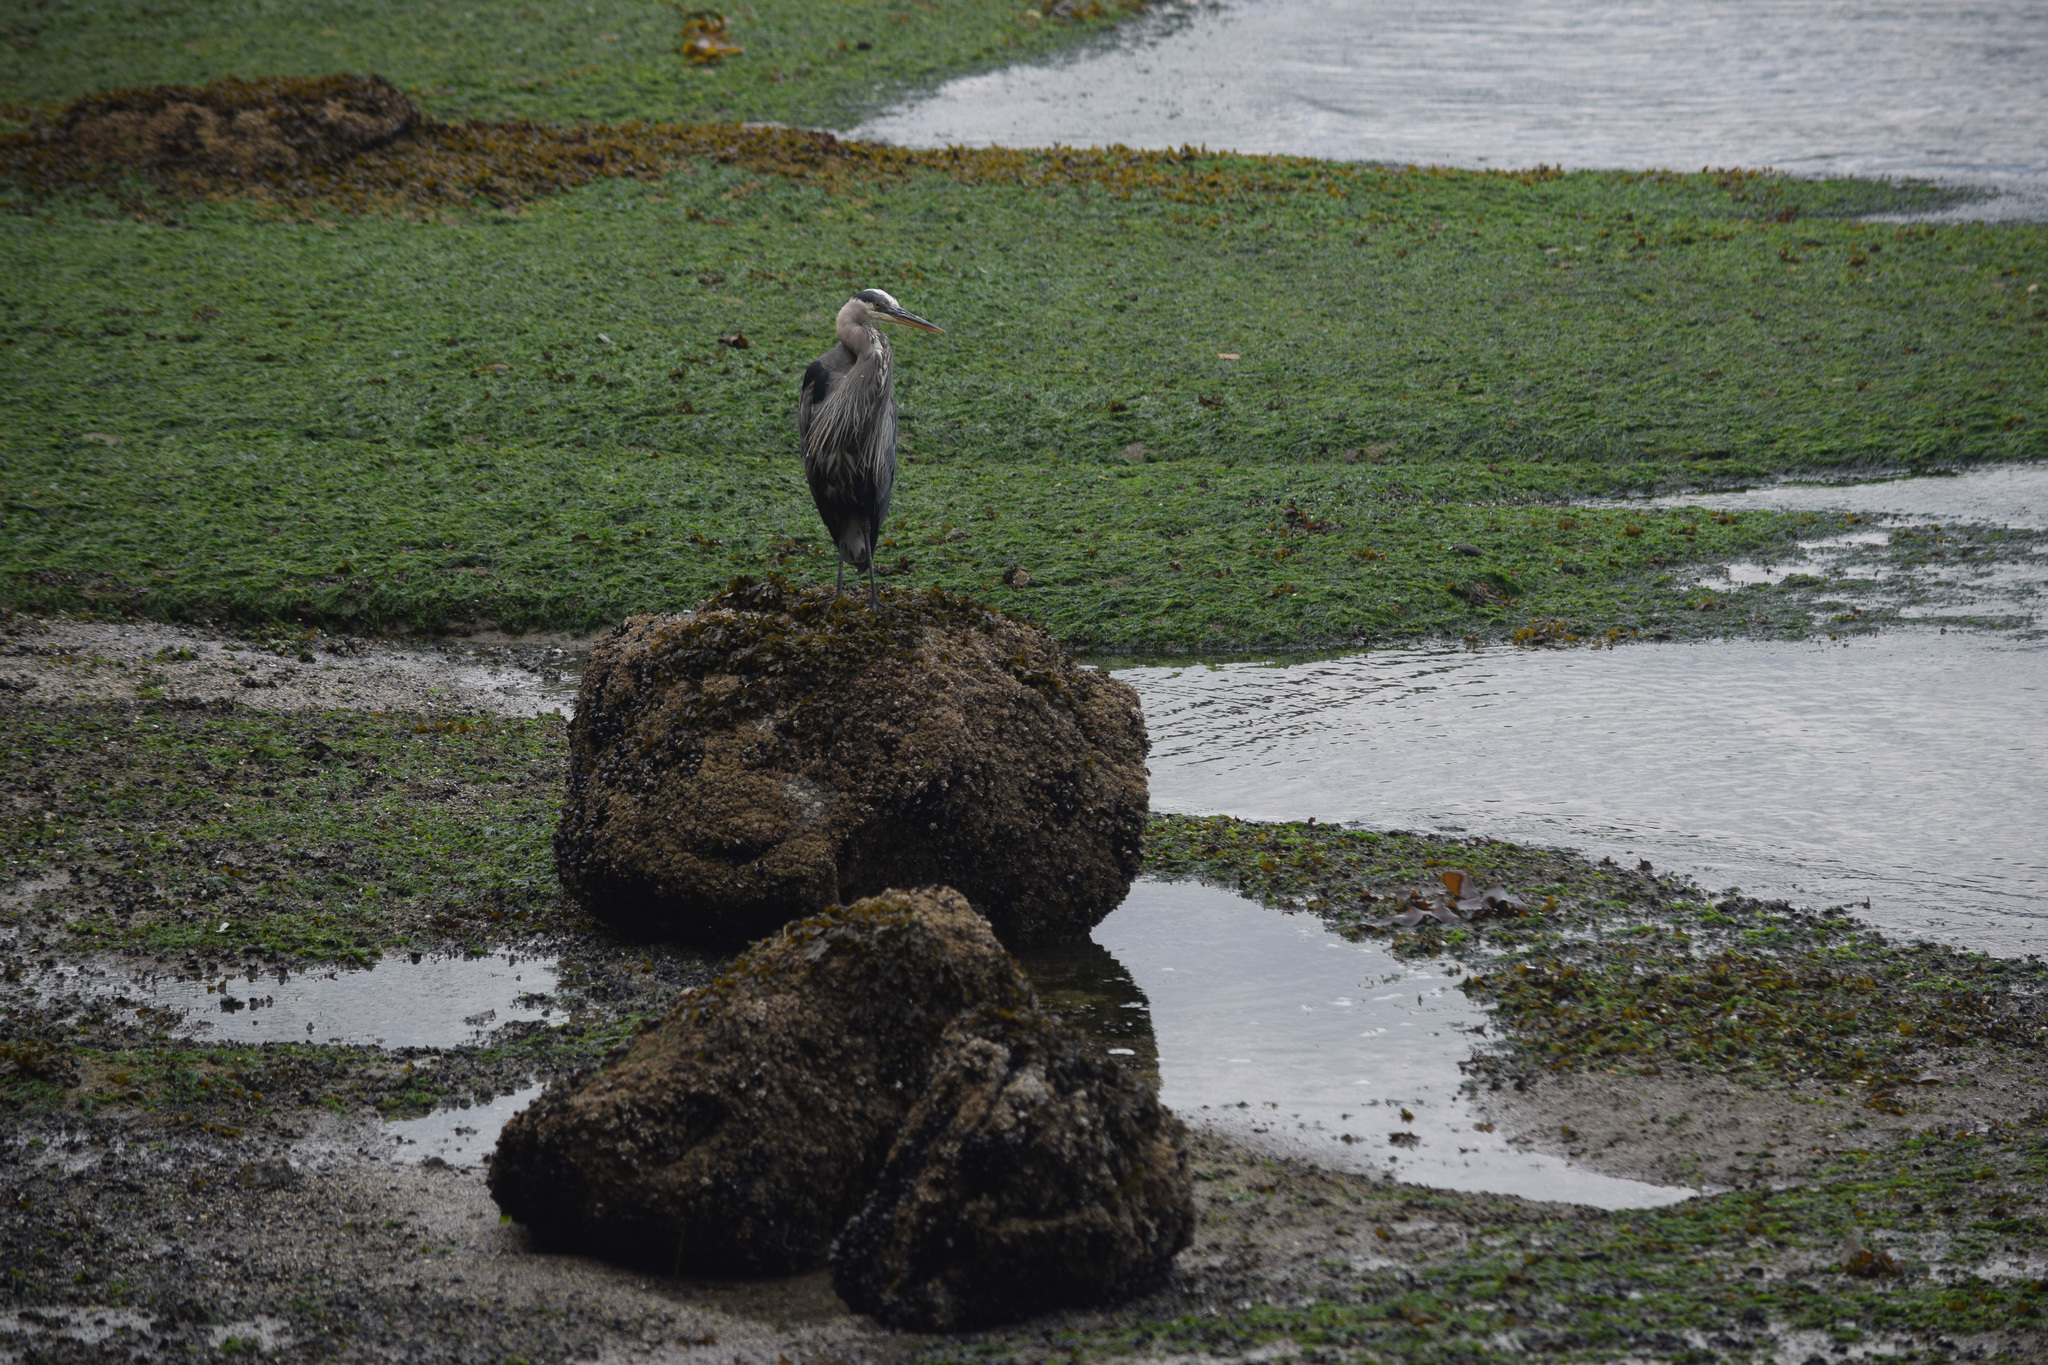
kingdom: Animalia
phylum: Chordata
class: Aves
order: Pelecaniformes
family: Ardeidae
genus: Ardea
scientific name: Ardea herodias
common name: Great blue heron
